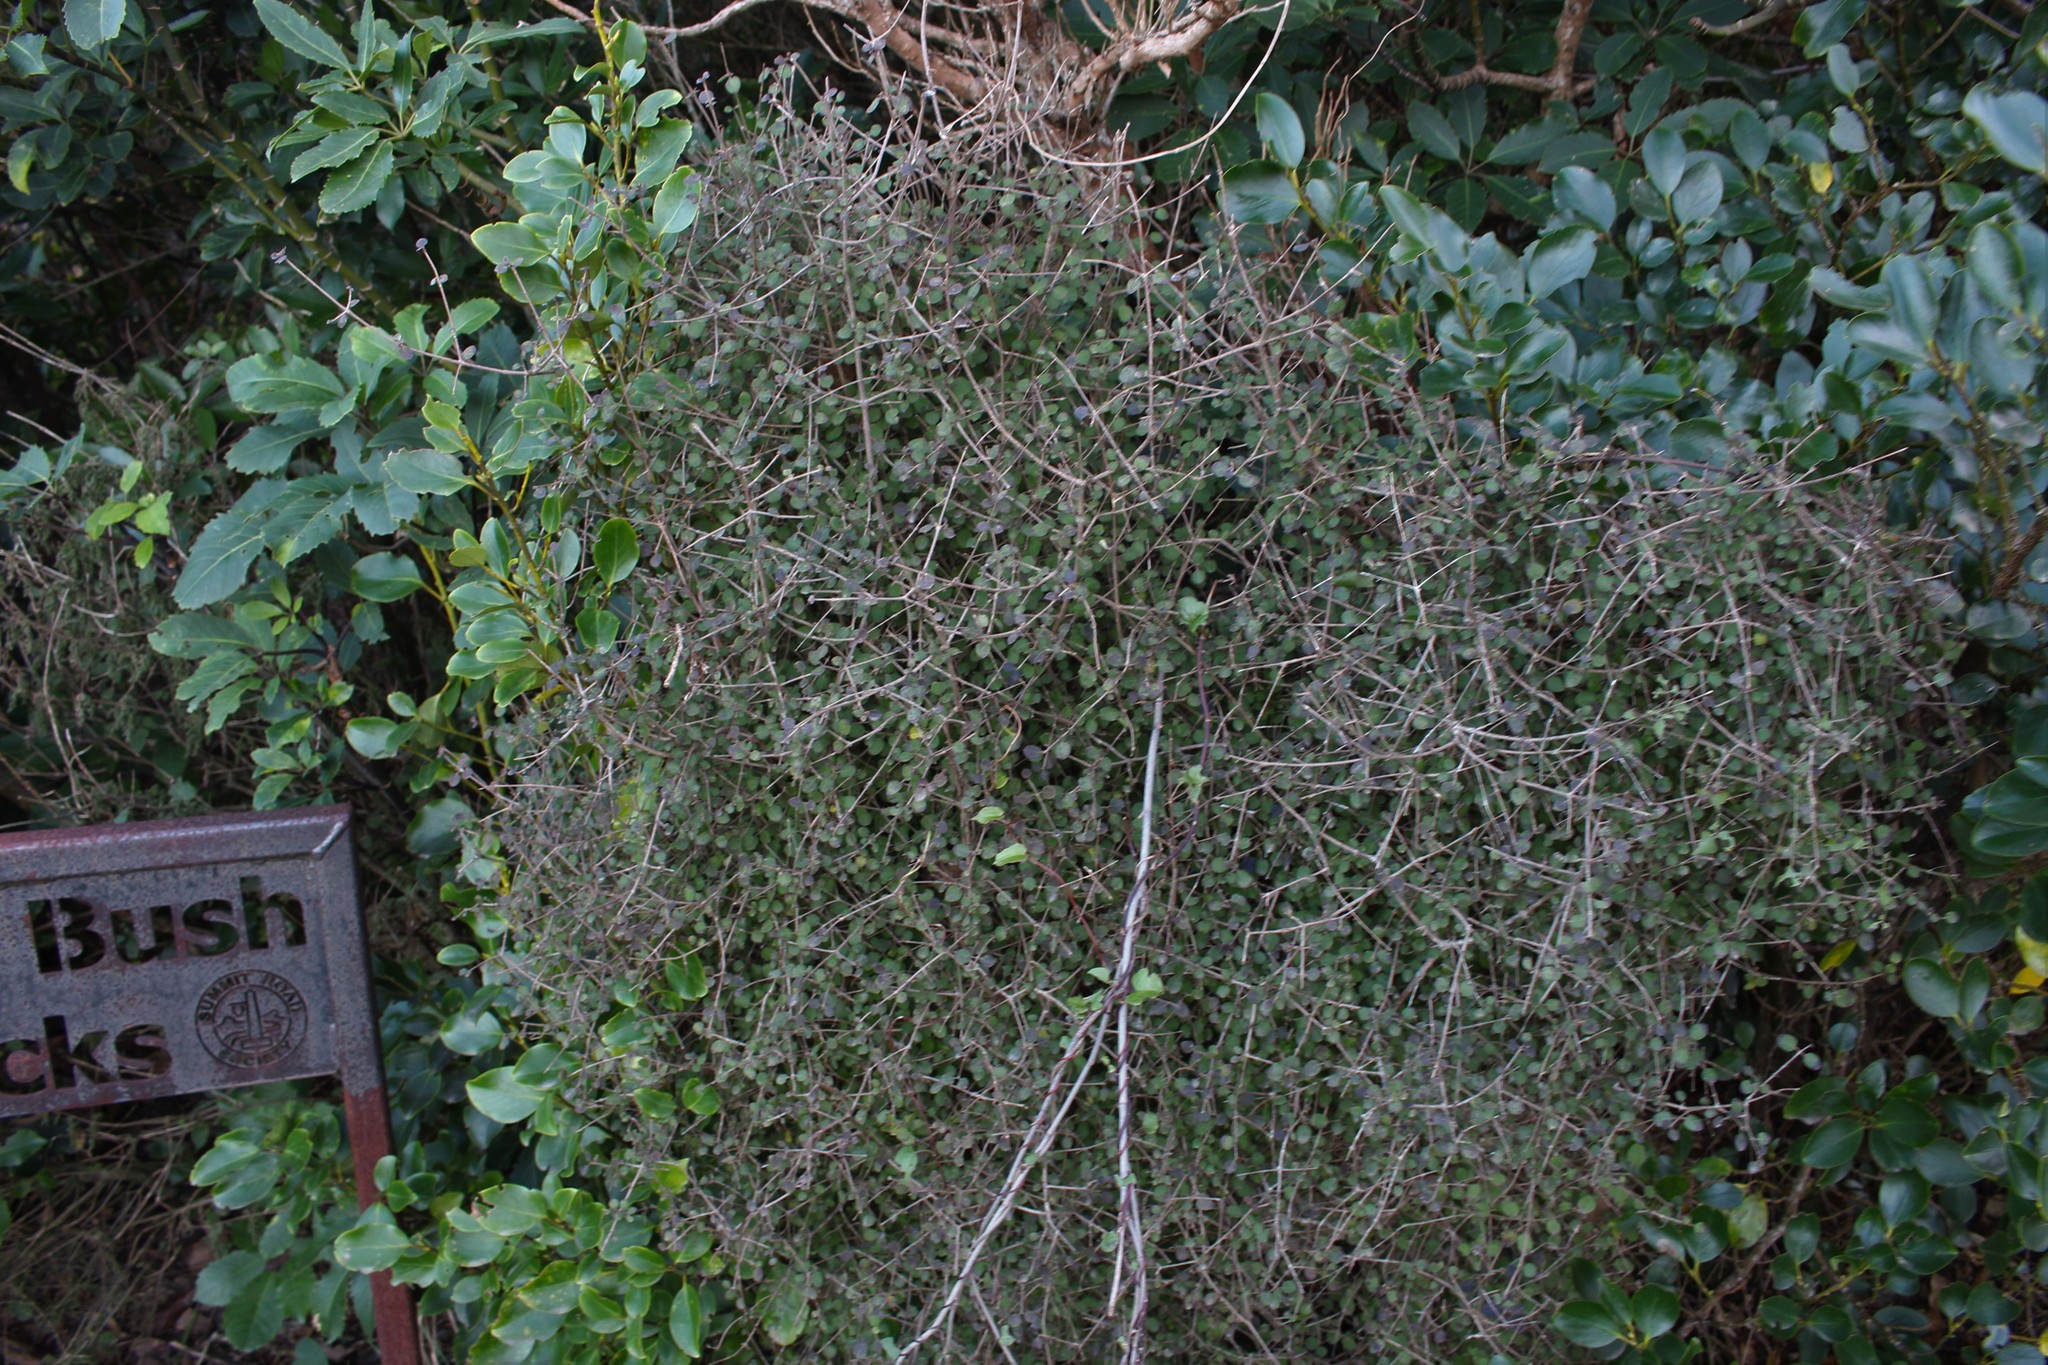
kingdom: Plantae
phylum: Tracheophyta
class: Magnoliopsida
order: Gentianales
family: Rubiaceae
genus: Coprosma
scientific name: Coprosma rotundifolia
